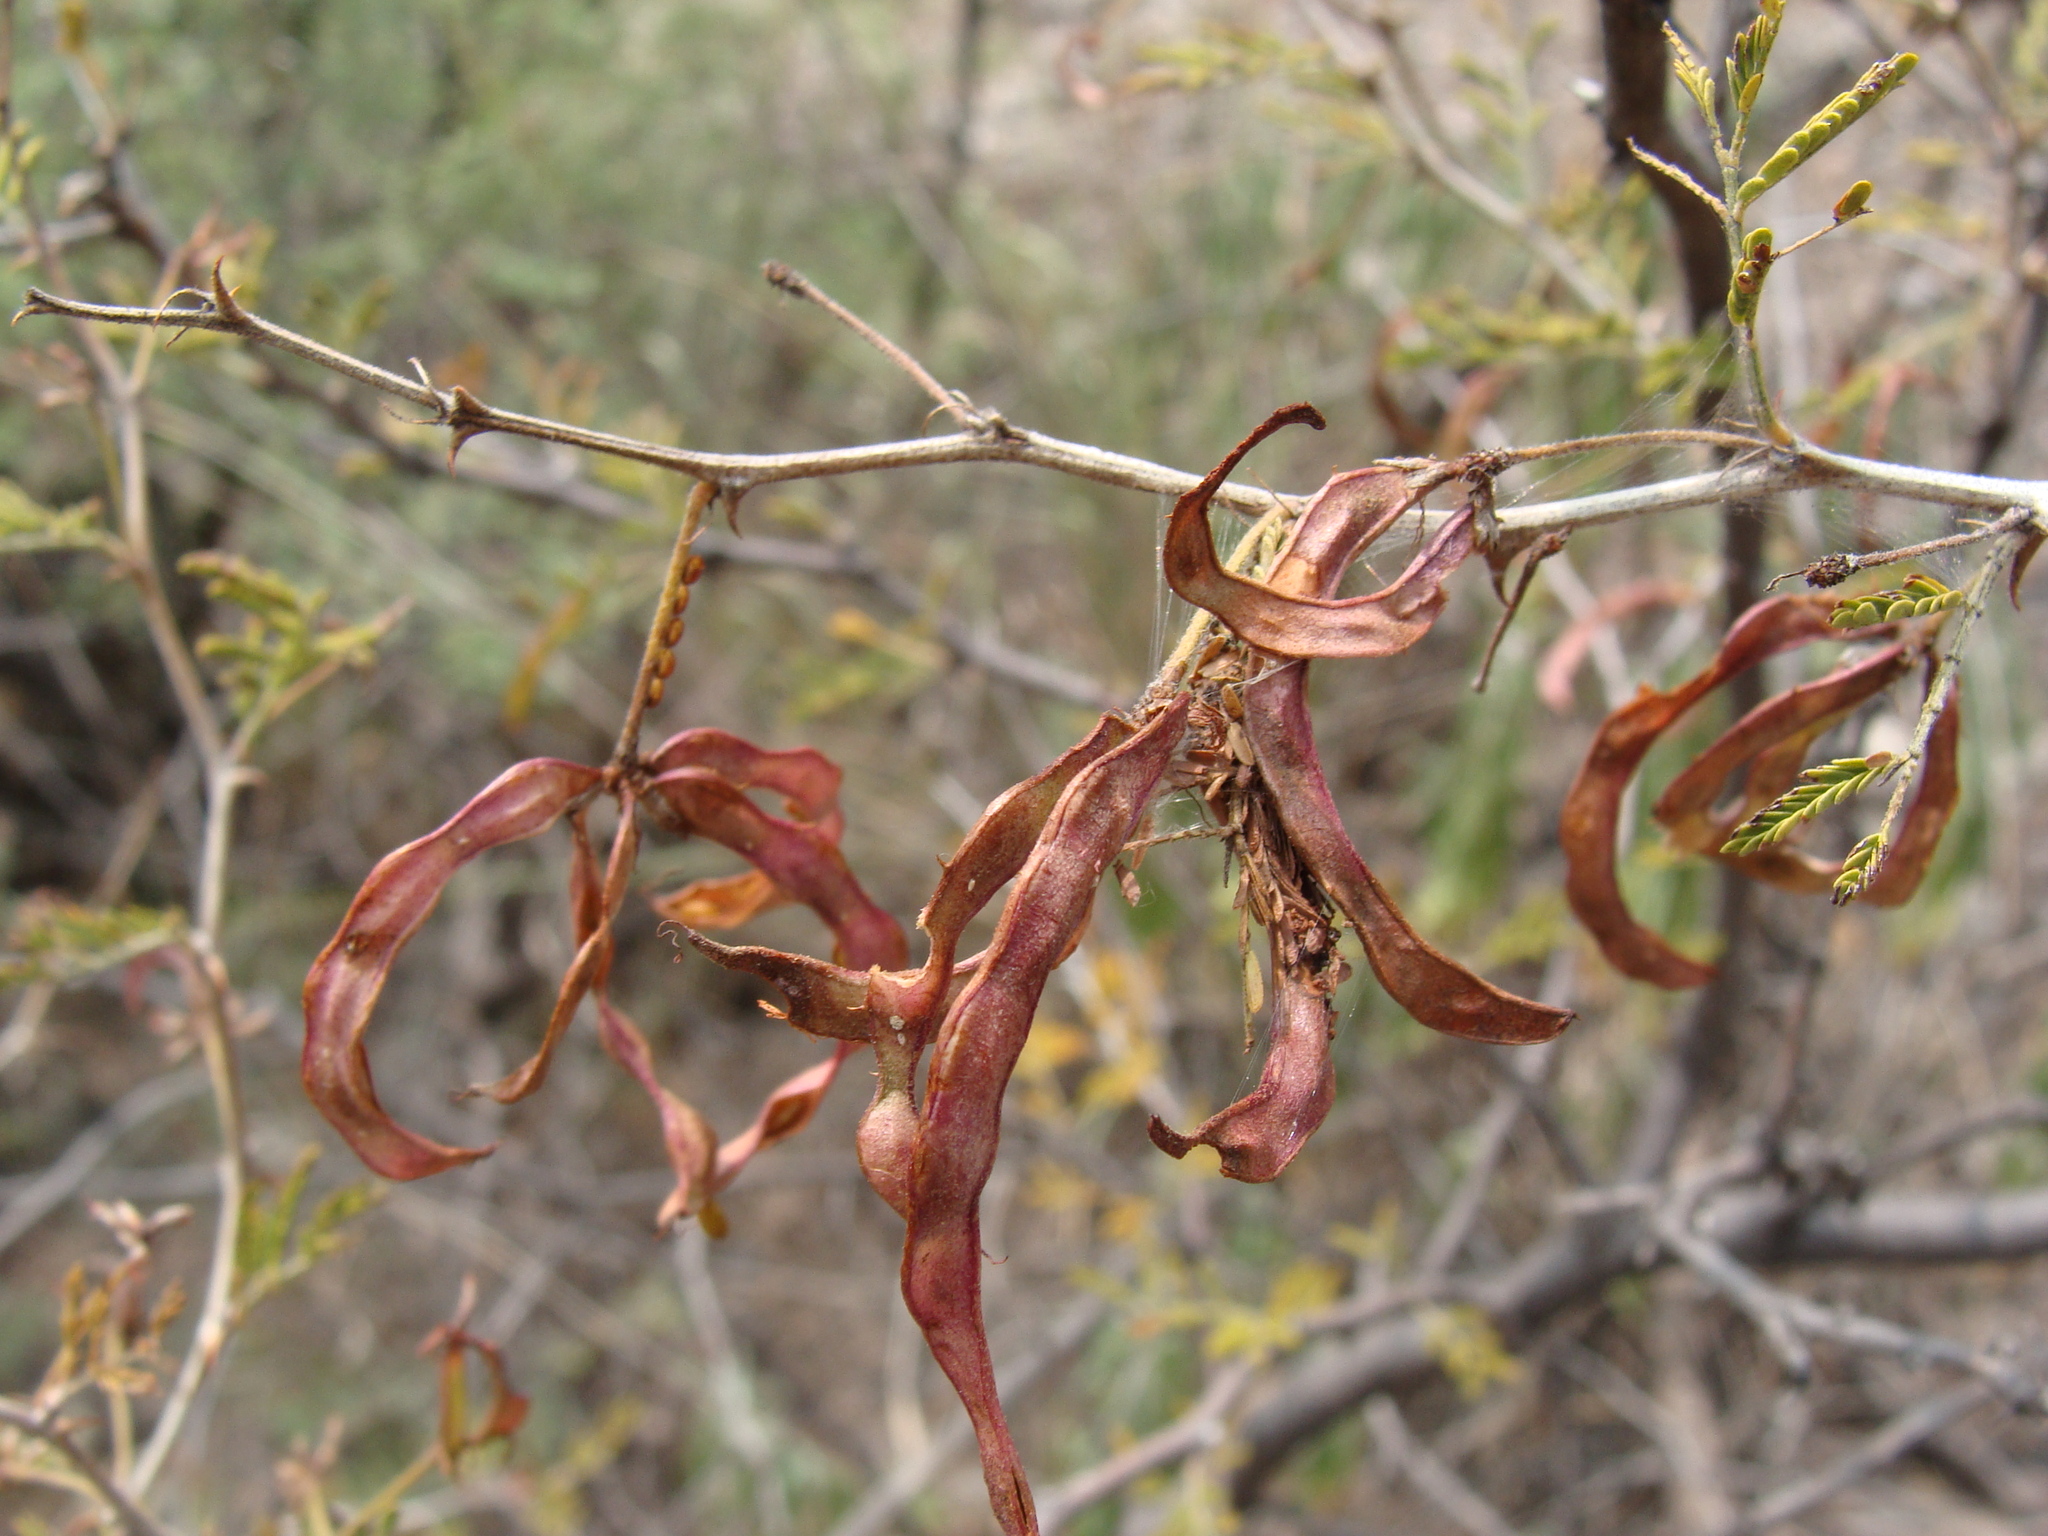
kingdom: Plantae
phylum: Tracheophyta
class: Magnoliopsida
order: Fabales
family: Fabaceae
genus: Mimosa
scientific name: Mimosa aculeaticarpa
